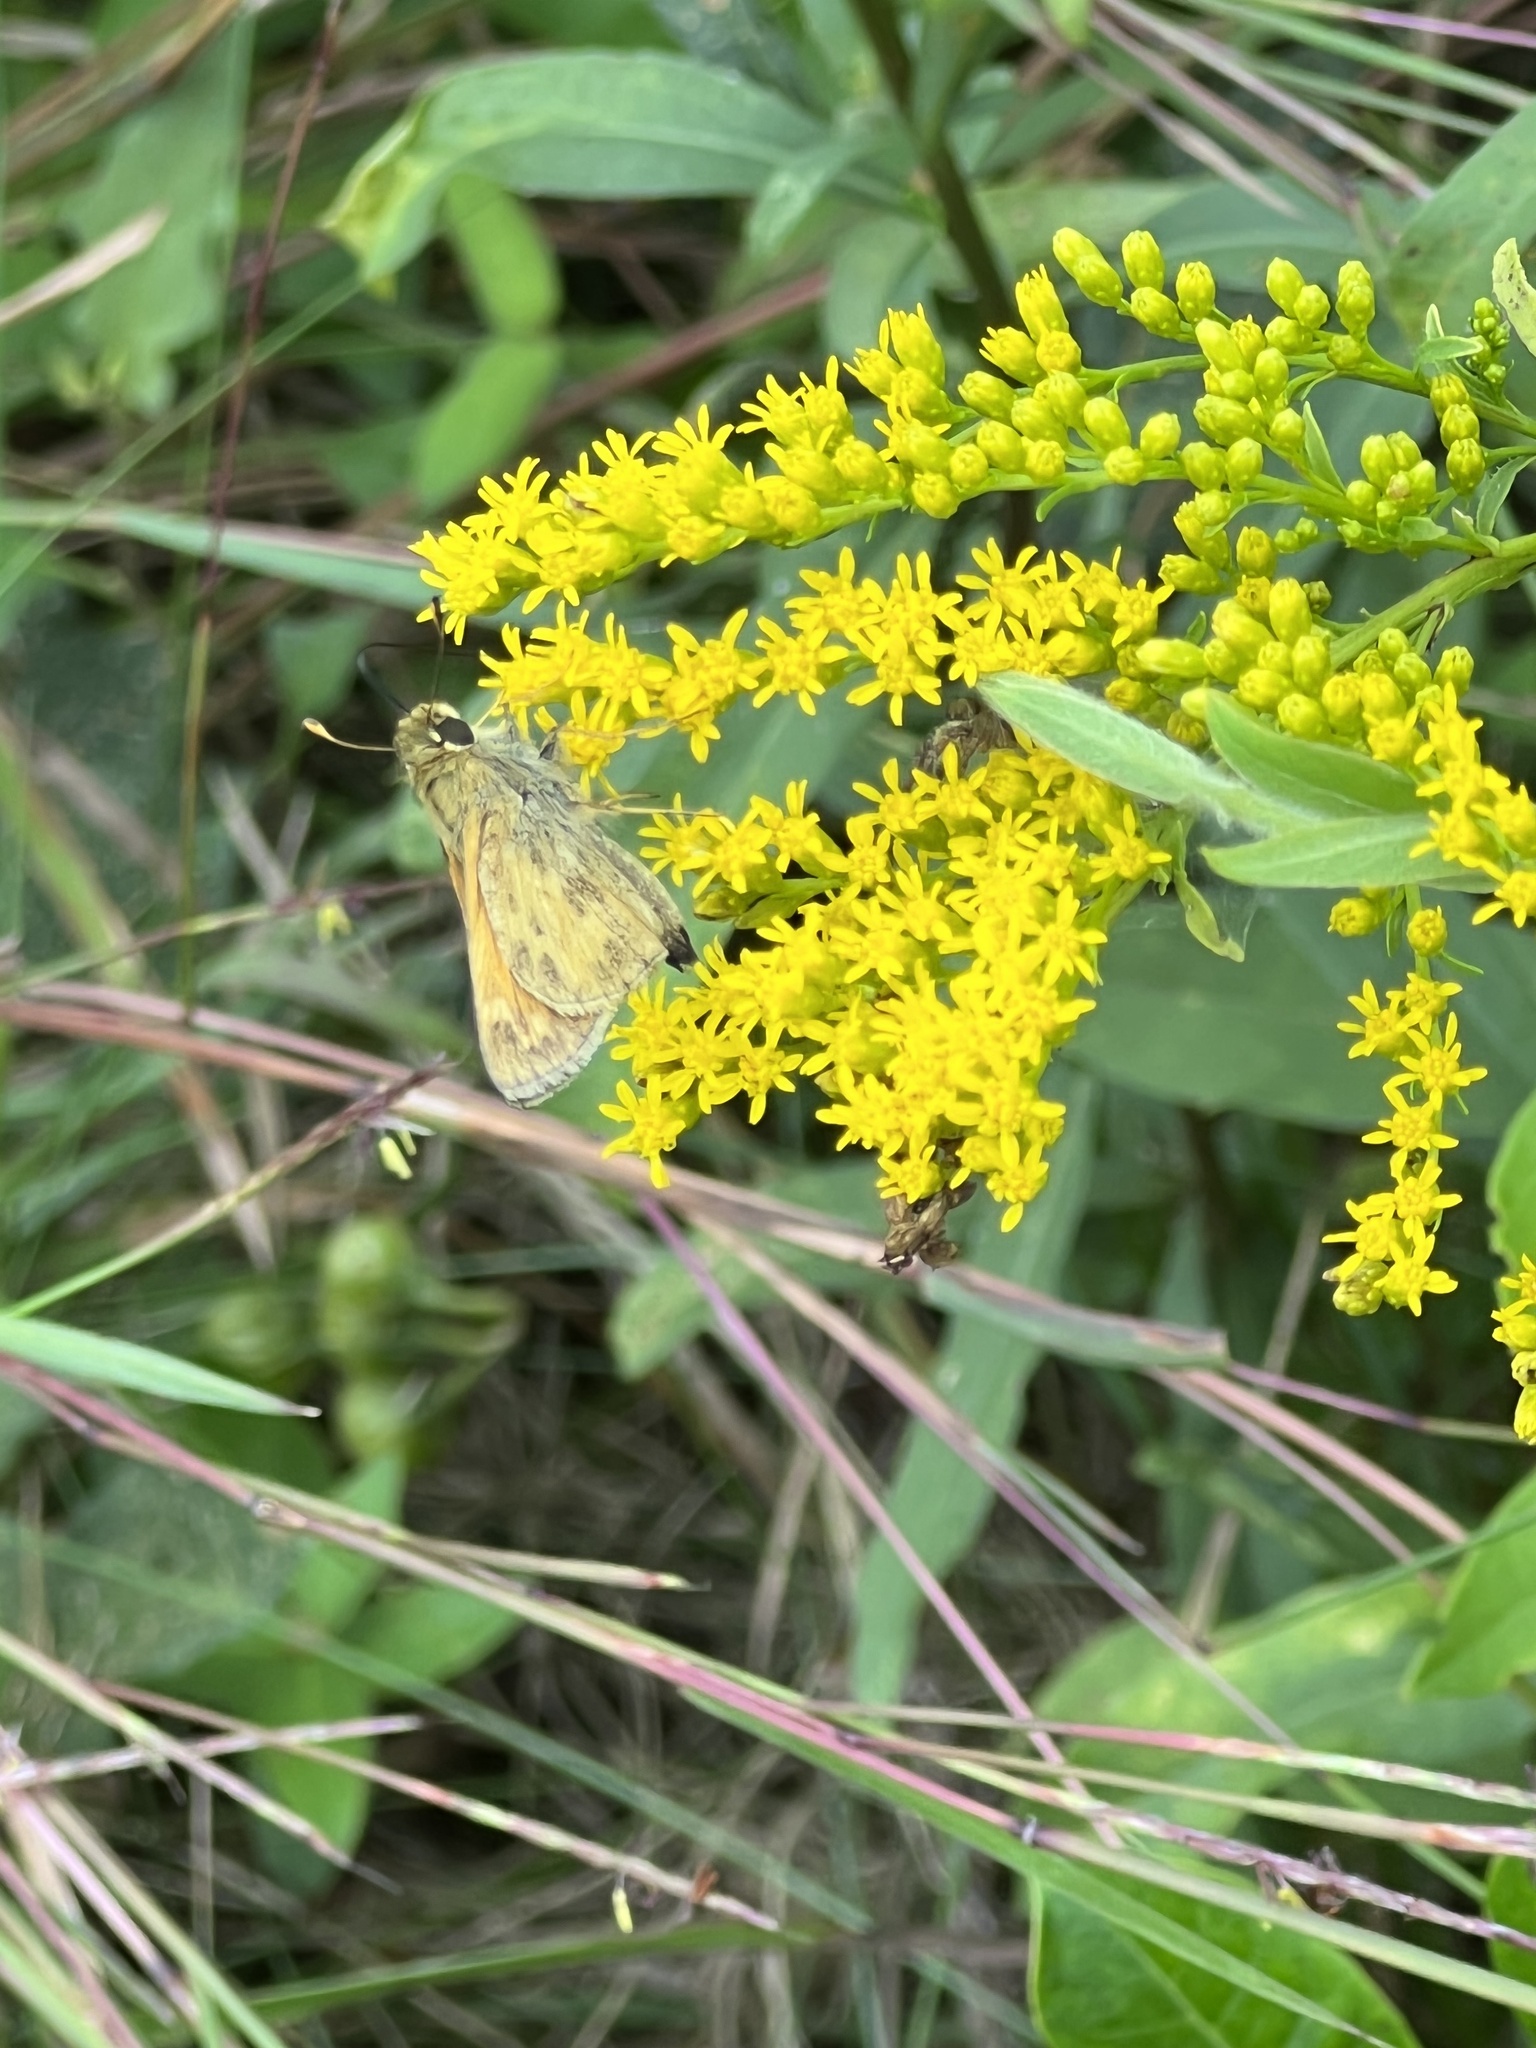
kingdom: Animalia
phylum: Arthropoda
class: Insecta
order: Lepidoptera
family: Hesperiidae
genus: Atalopedes
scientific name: Atalopedes
